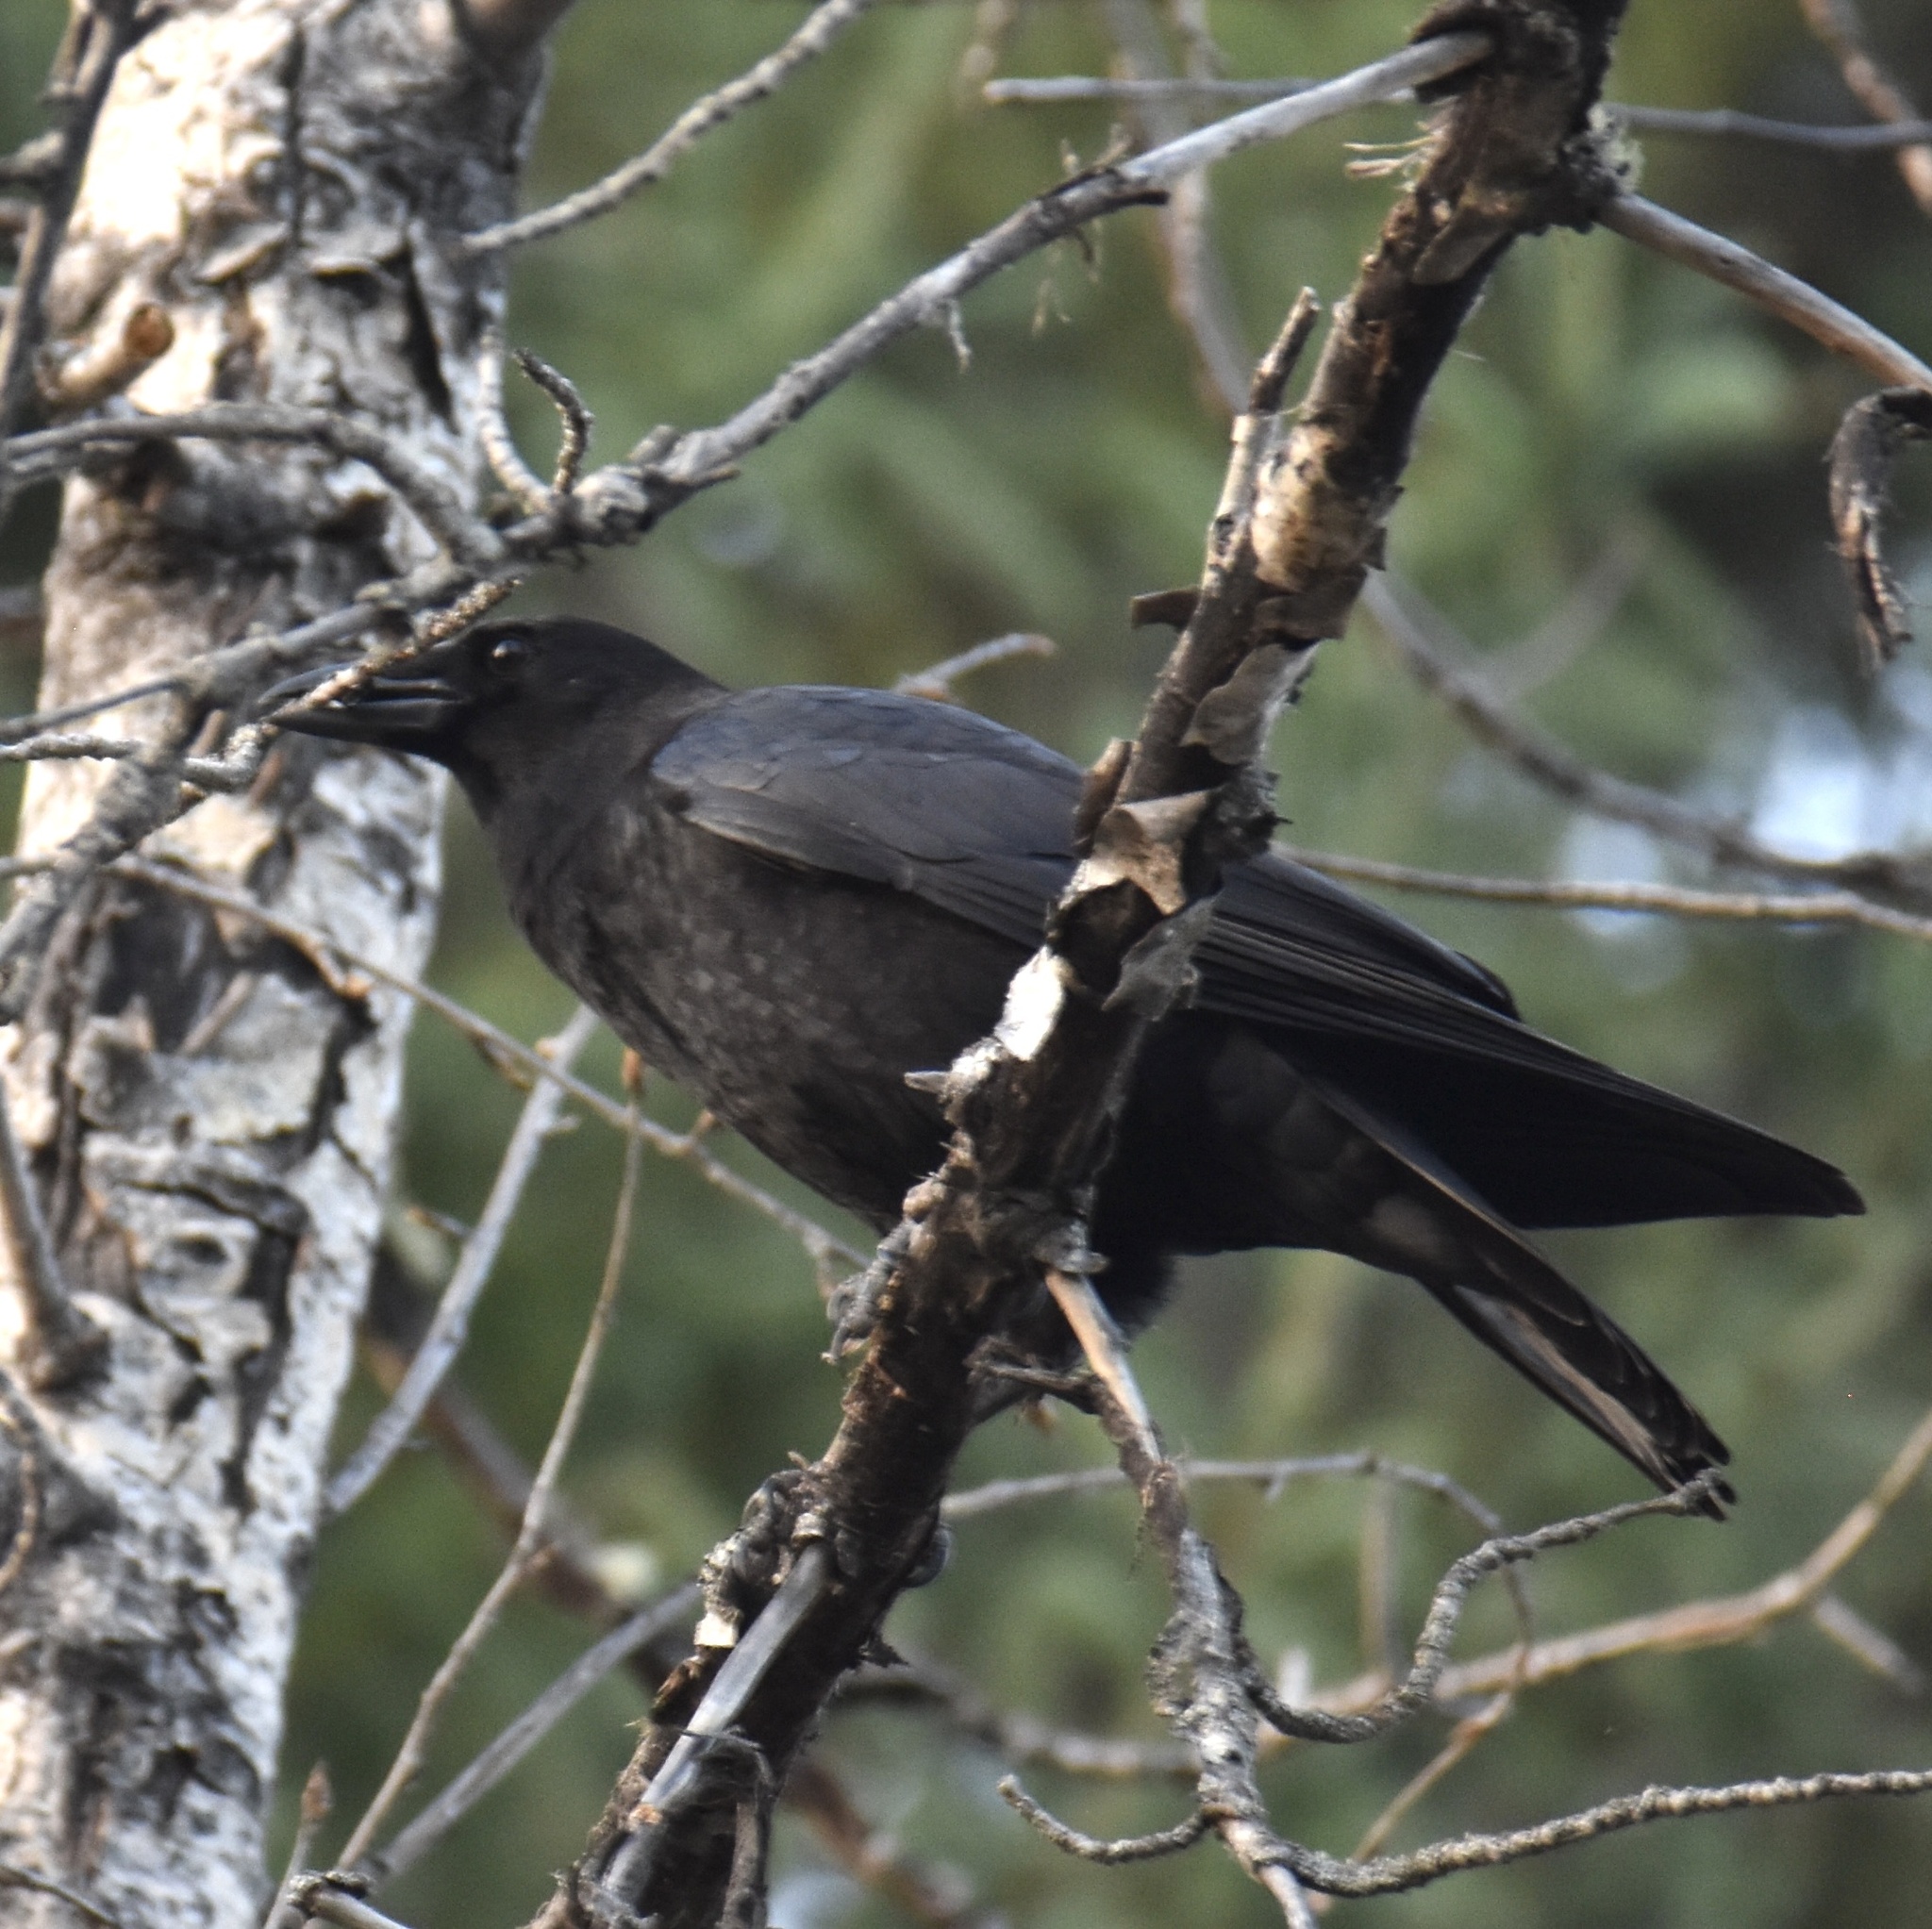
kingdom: Animalia
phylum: Chordata
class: Aves
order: Passeriformes
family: Corvidae
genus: Corvus
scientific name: Corvus brachyrhynchos
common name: American crow
